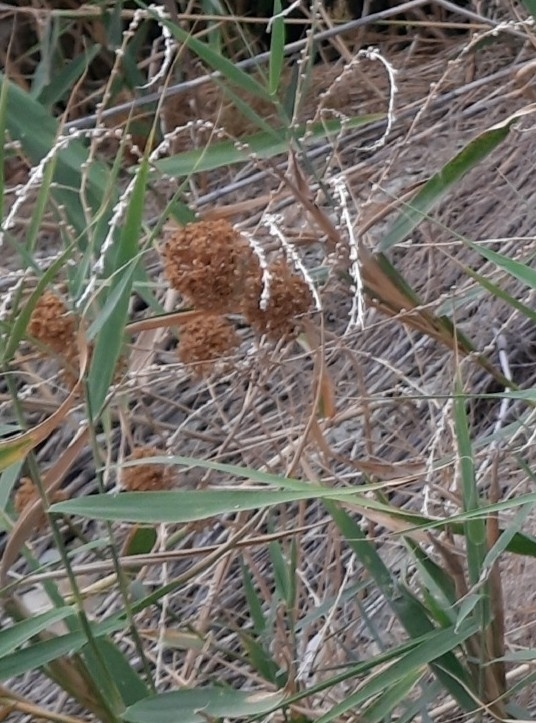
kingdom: Plantae
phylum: Tracheophyta
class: Liliopsida
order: Asparagales
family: Amaryllidaceae
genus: Allium
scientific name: Allium atroviolaceum
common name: Broadleaf wild leek
